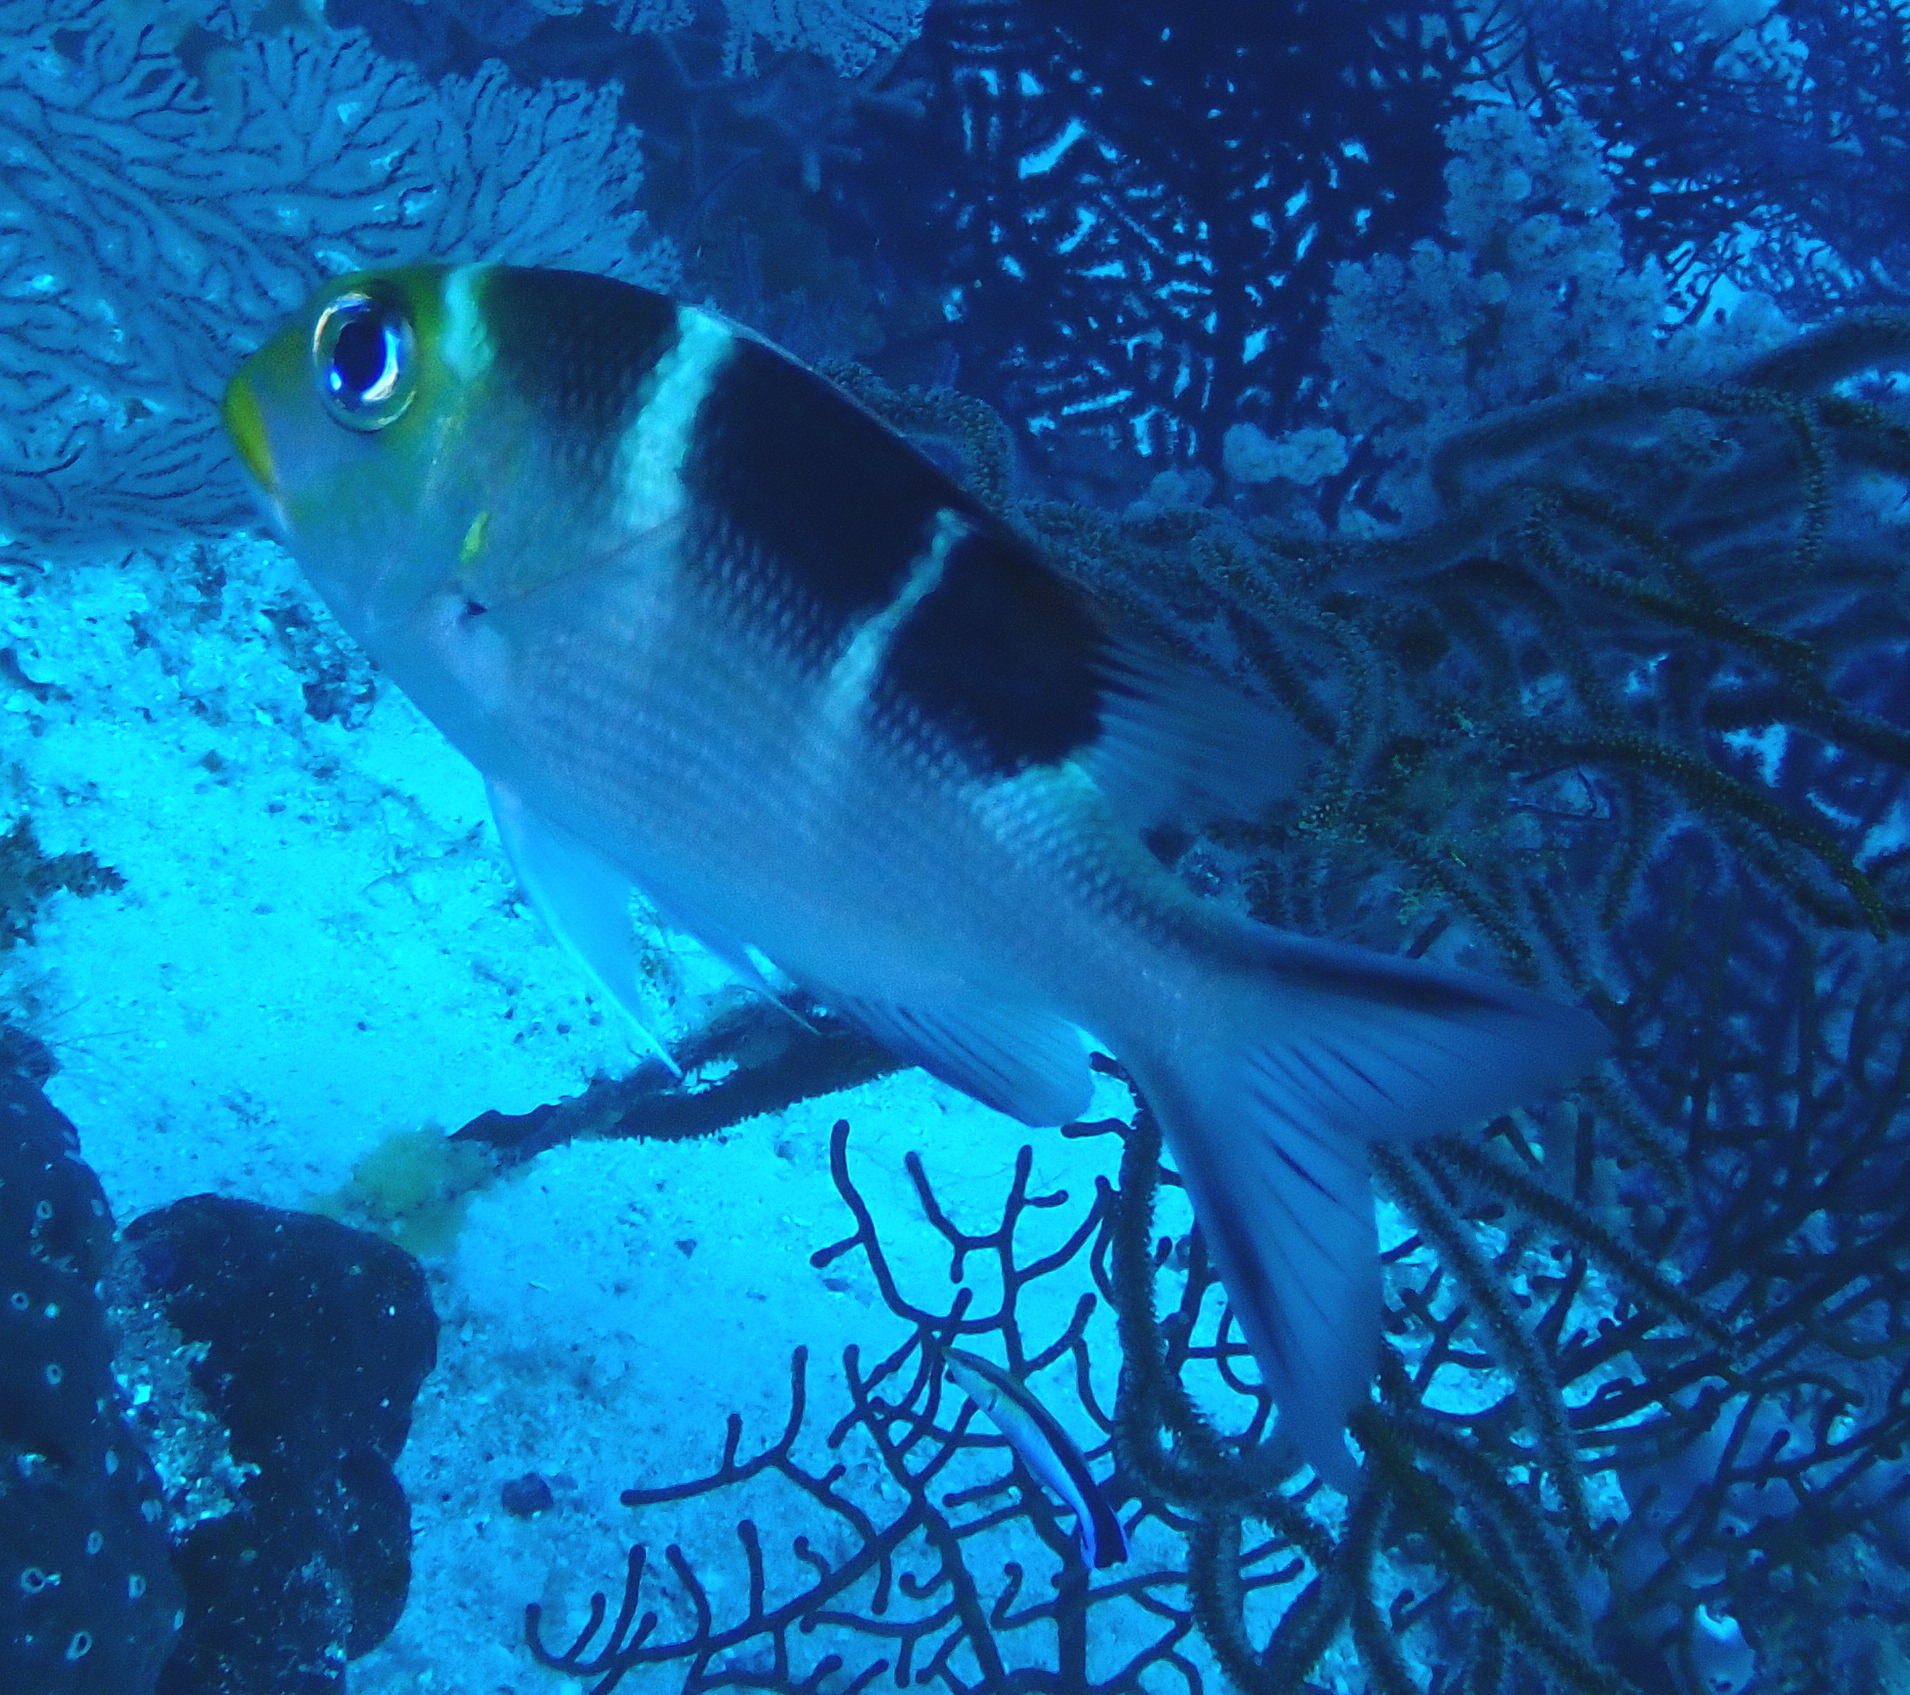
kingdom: Animalia
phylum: Chordata
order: Perciformes
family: Lethrinidae
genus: Monotaxis
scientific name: Monotaxis grandoculis
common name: Bigeye emperor
